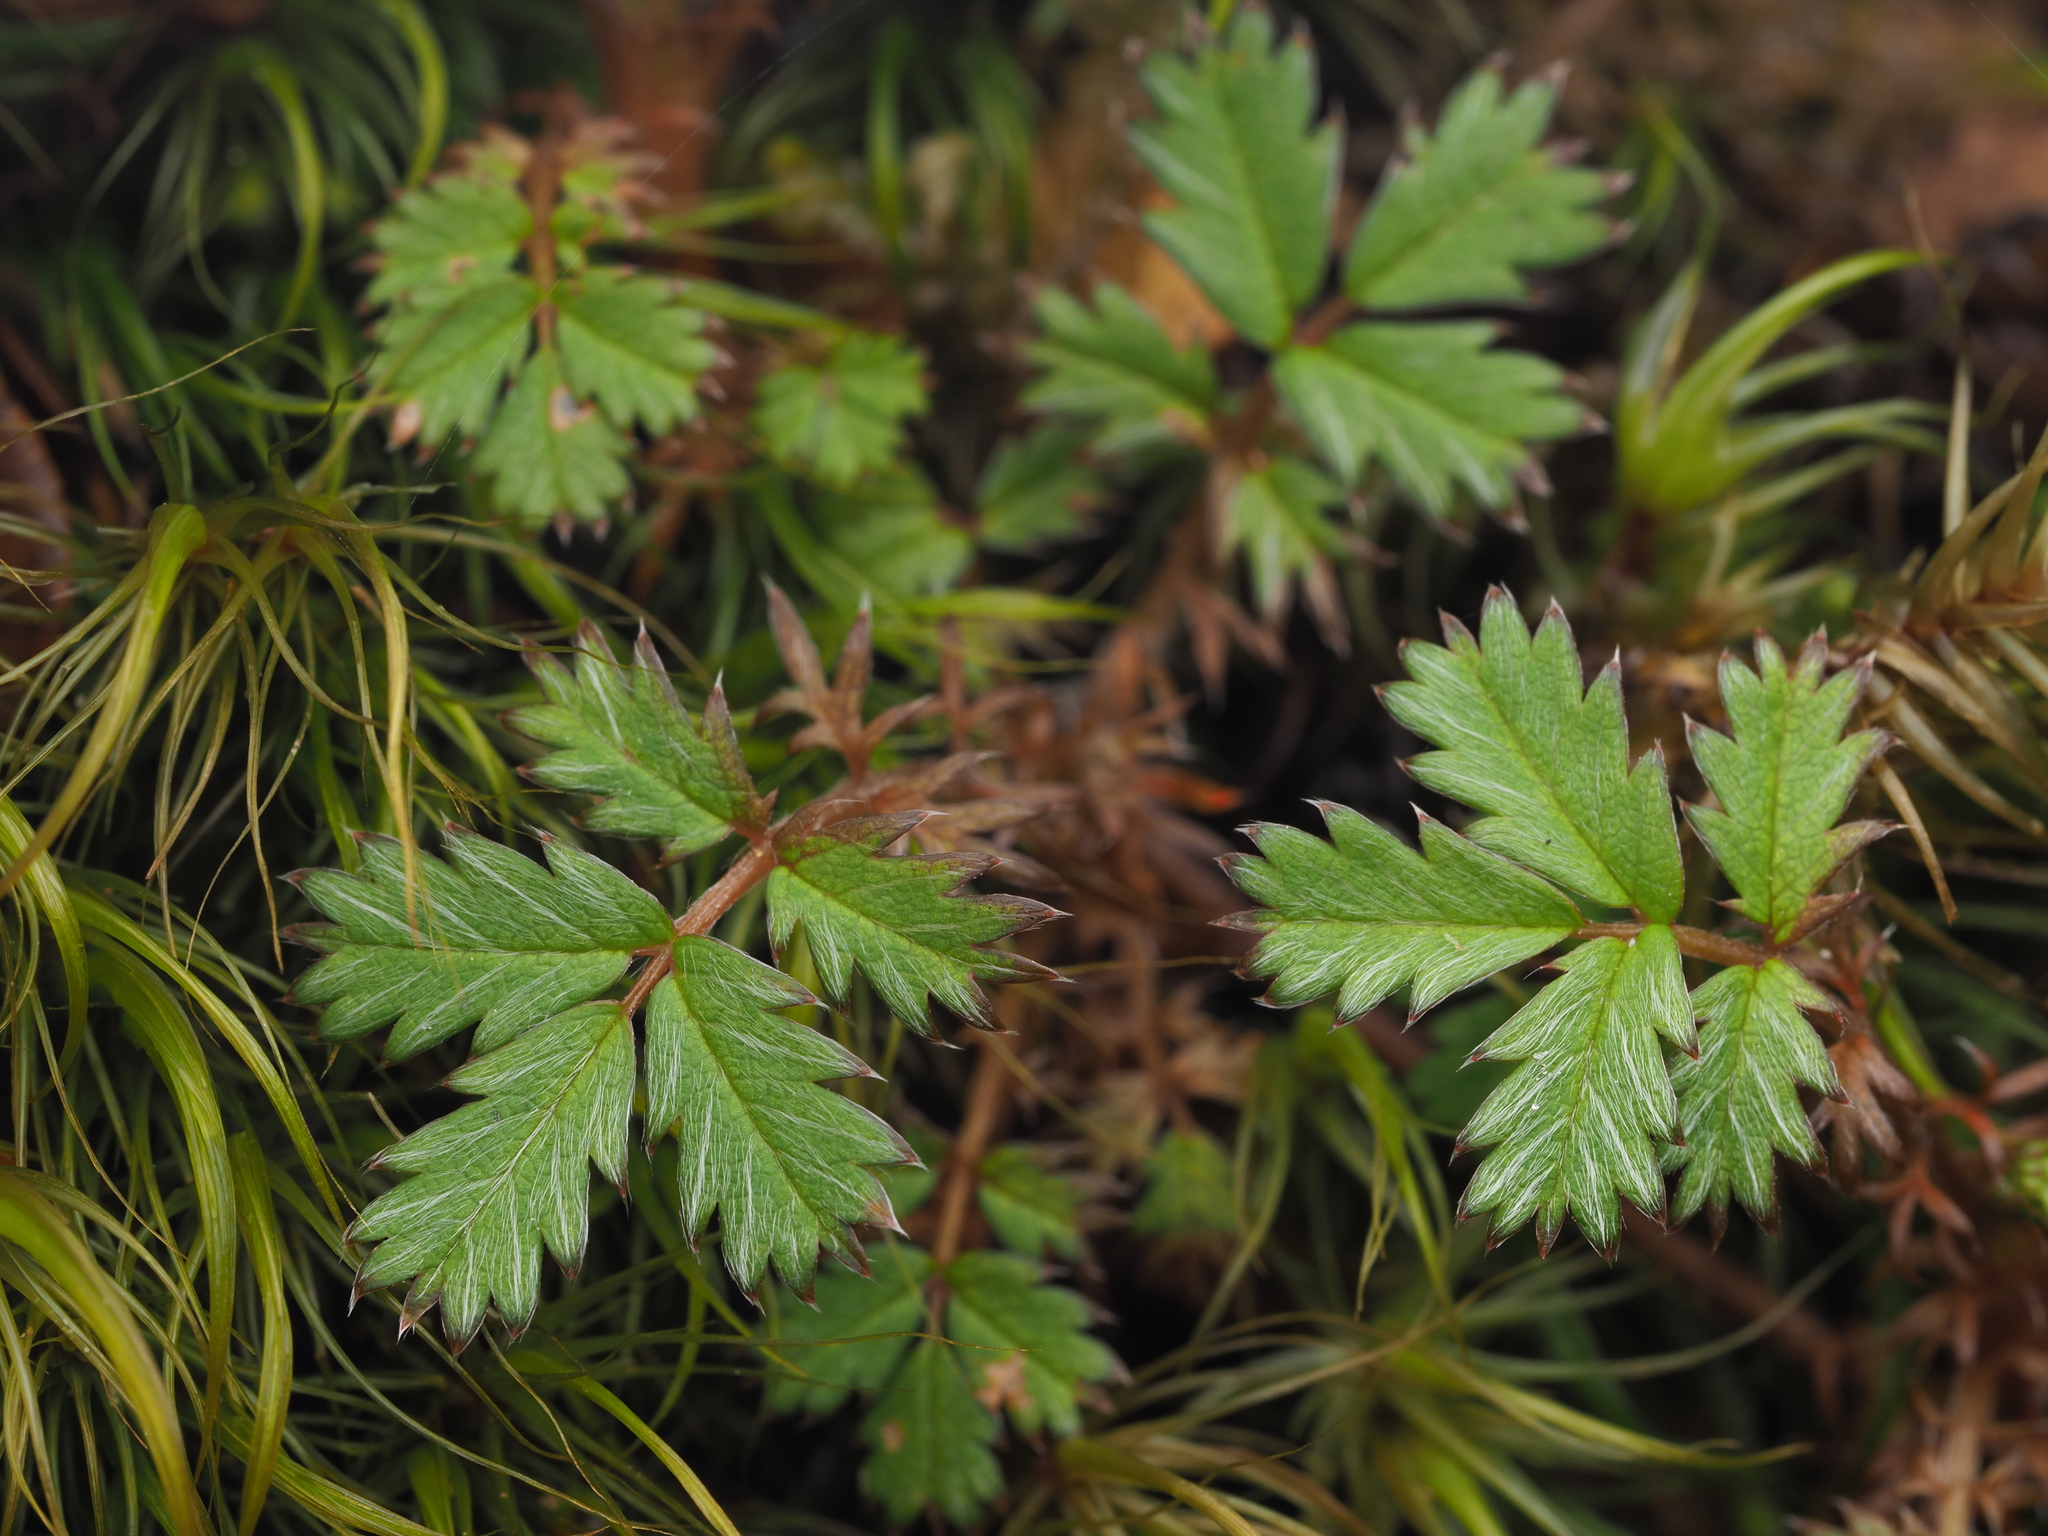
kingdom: Plantae
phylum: Tracheophyta
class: Magnoliopsida
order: Rosales
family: Rosaceae
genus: Acaena
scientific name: Acaena anserinifolia
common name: Bronze pirri-pirri-bur
